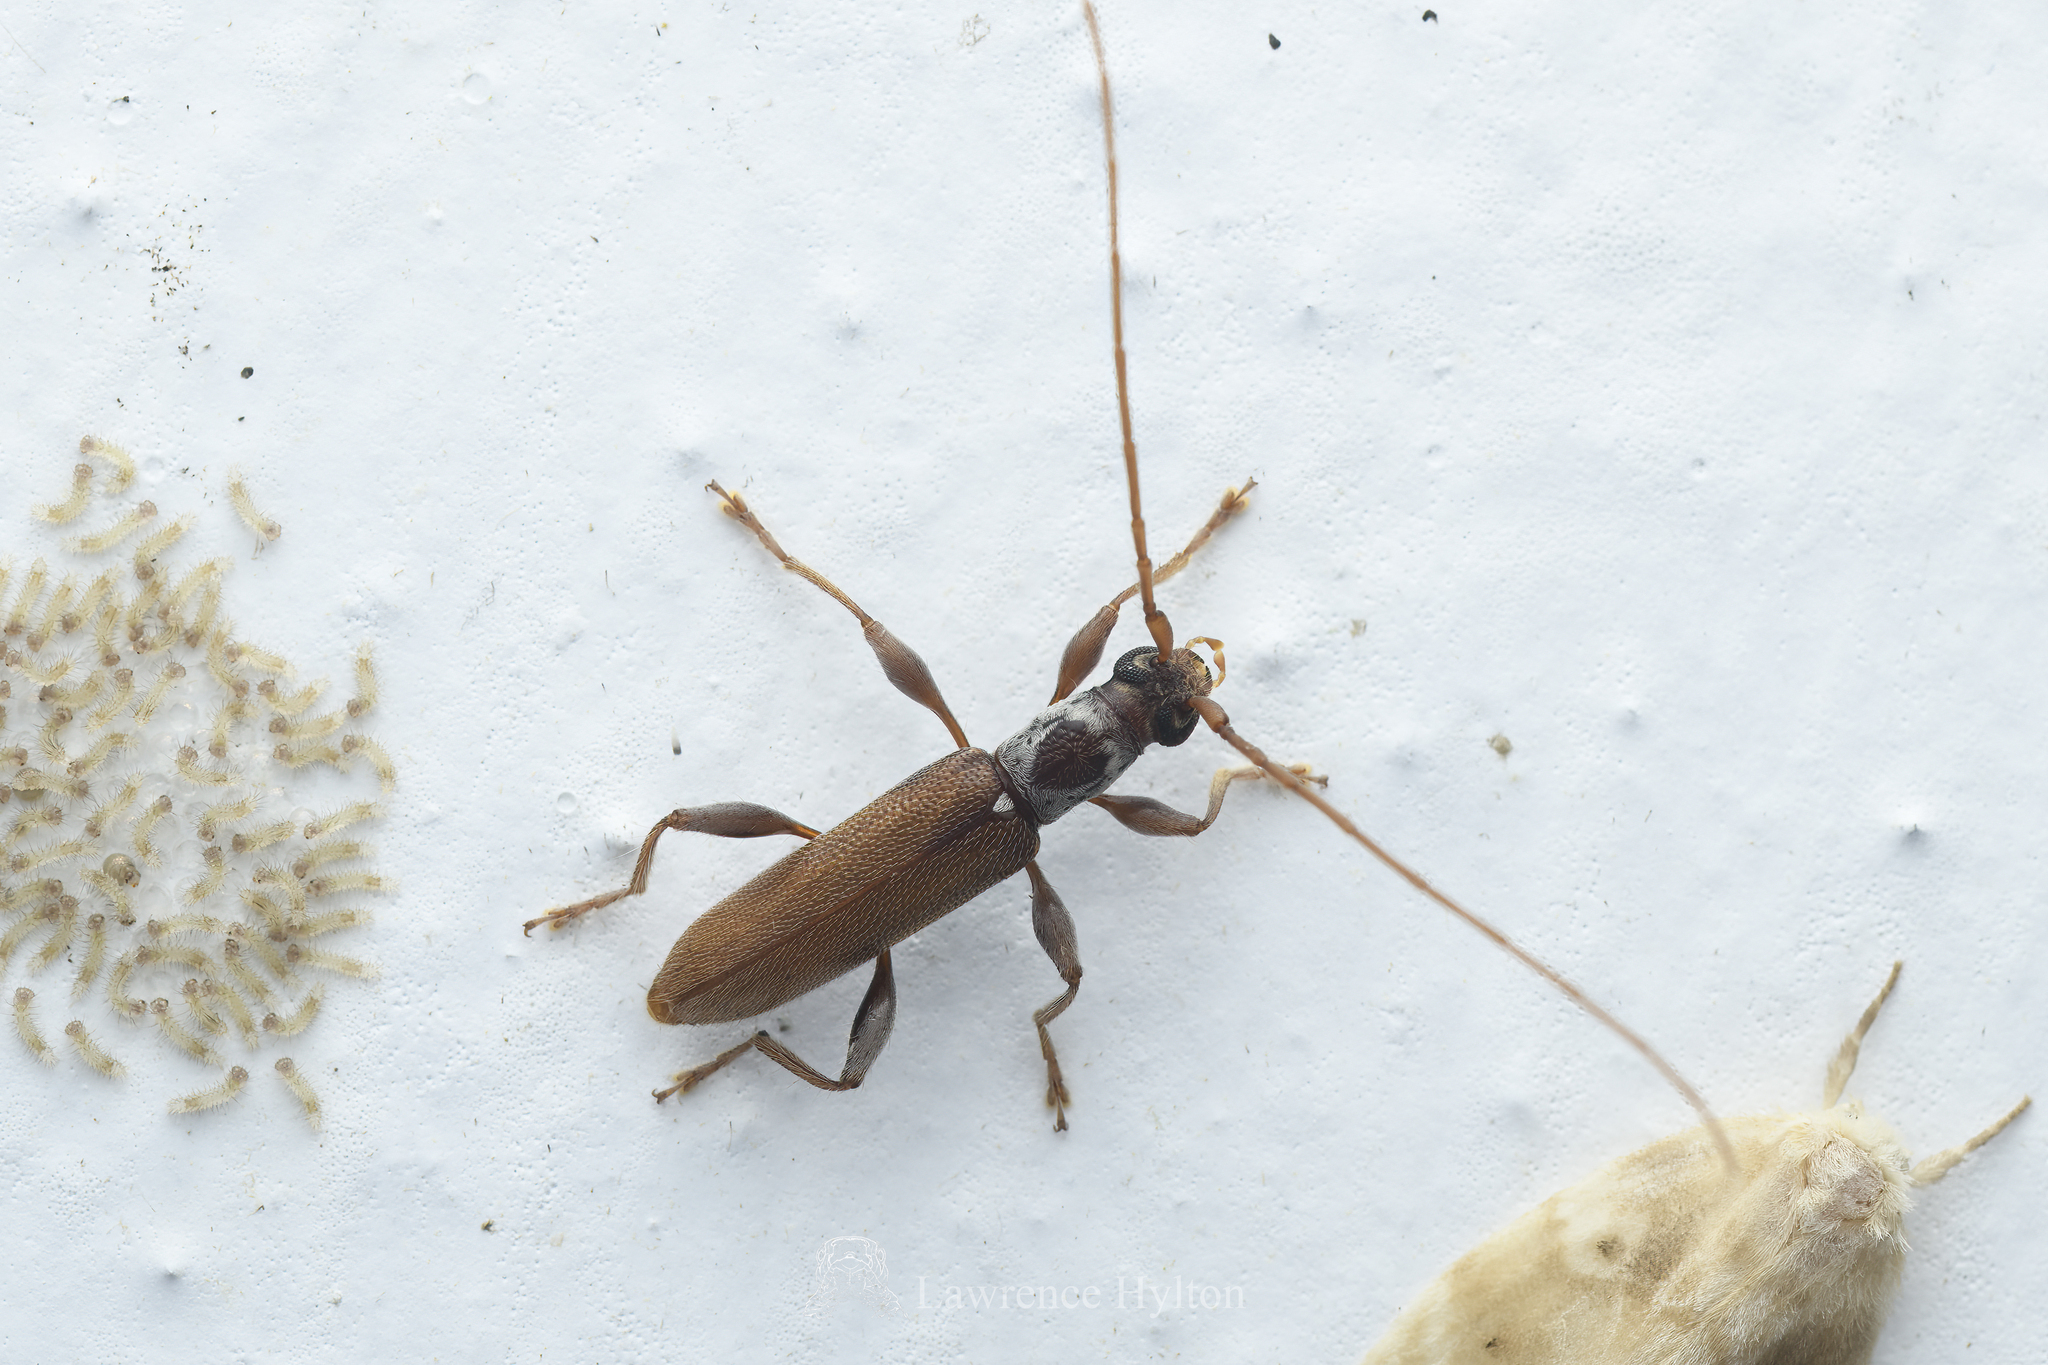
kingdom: Animalia
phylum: Arthropoda
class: Insecta
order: Coleoptera
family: Cerambycidae
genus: Ceresium
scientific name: Ceresium zeylanicum
